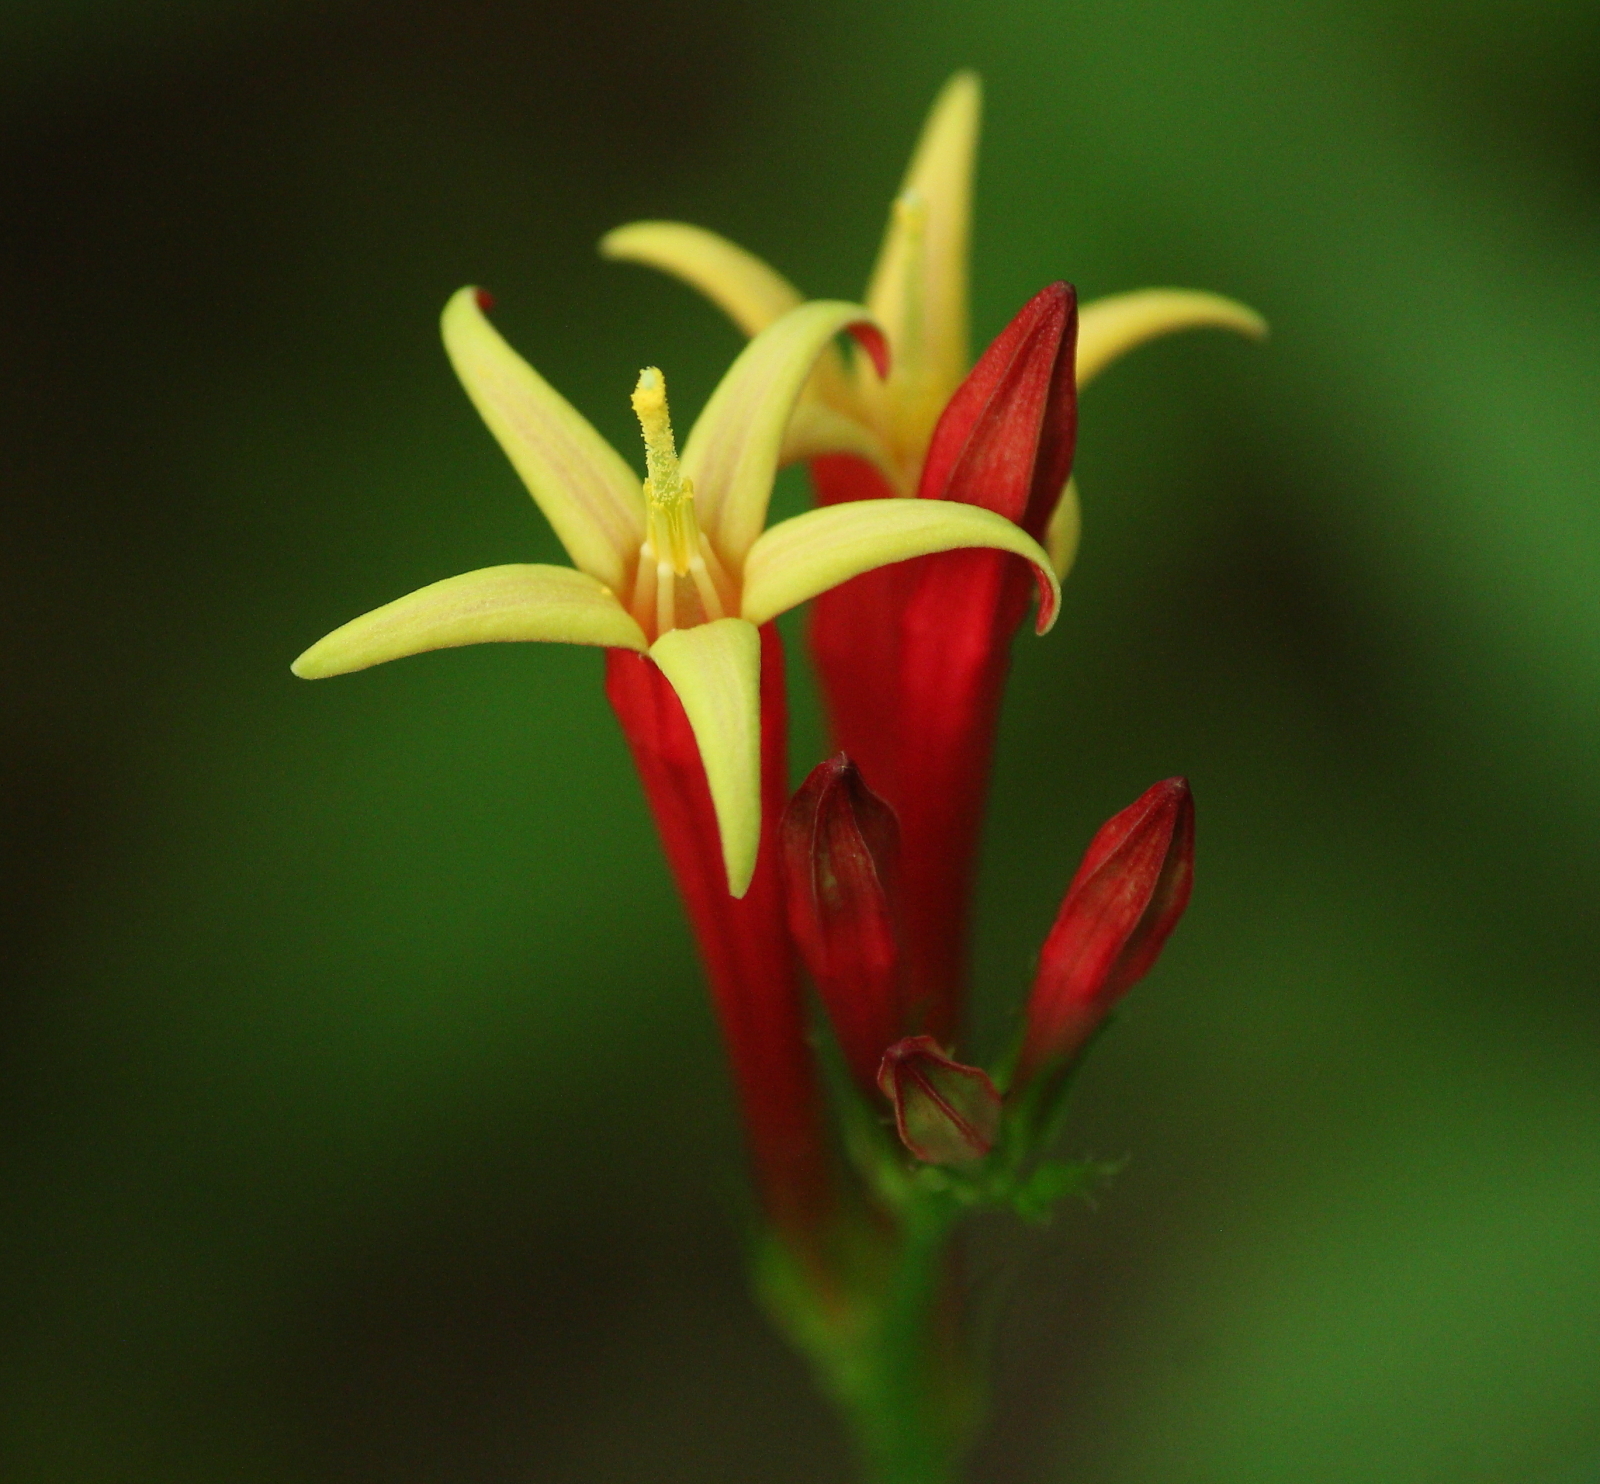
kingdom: Plantae
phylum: Tracheophyta
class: Magnoliopsida
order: Gentianales
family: Loganiaceae
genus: Spigelia
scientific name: Spigelia marilandica
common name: Indian-pink
